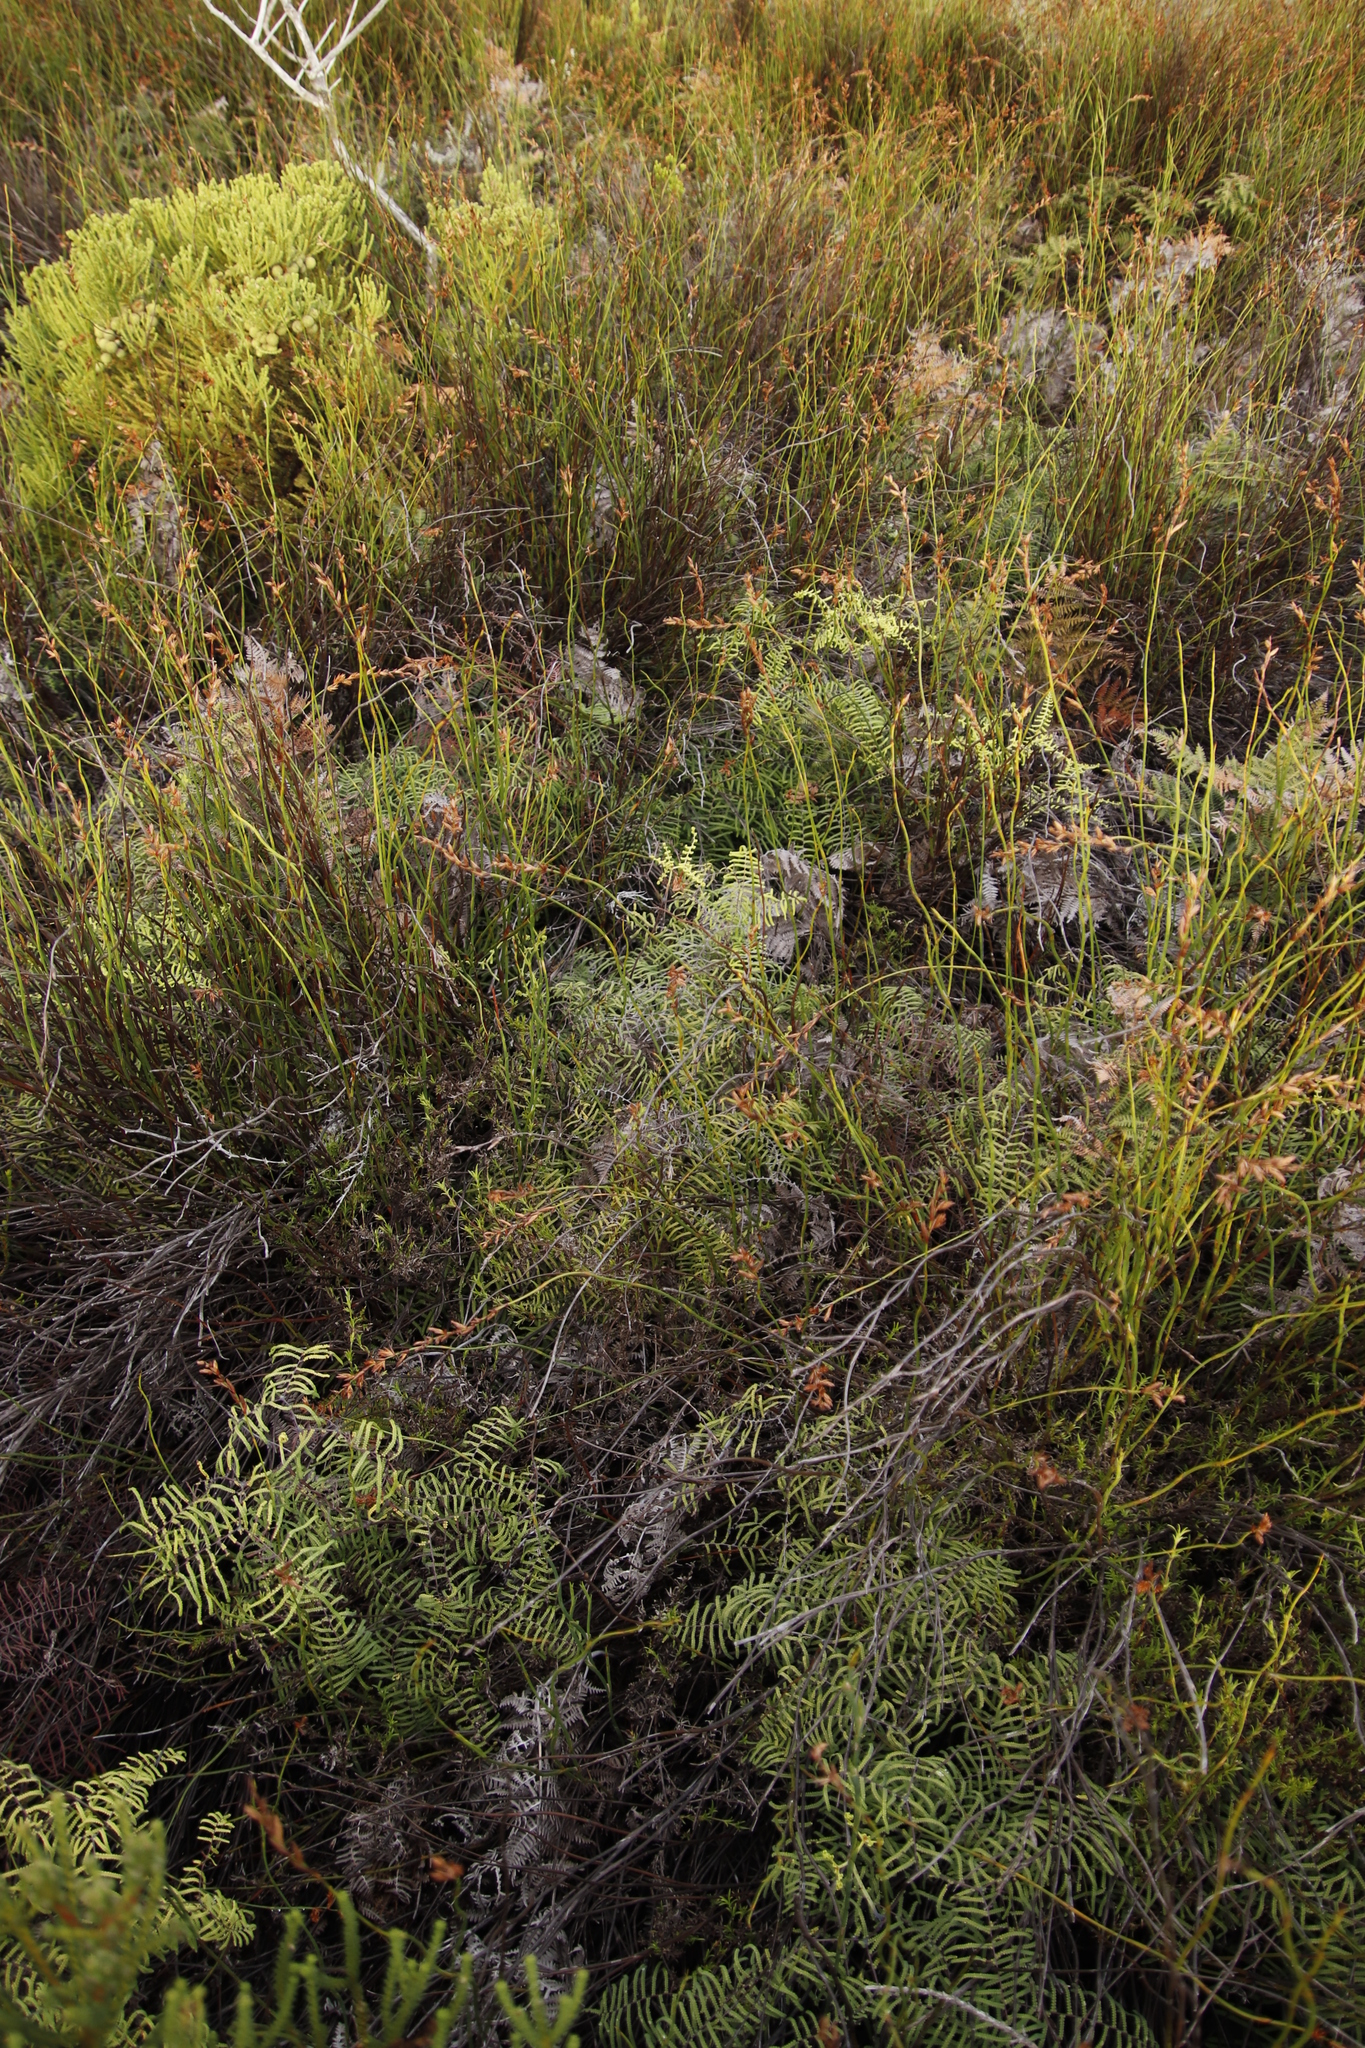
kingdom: Plantae
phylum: Tracheophyta
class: Polypodiopsida
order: Gleicheniales
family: Gleicheniaceae
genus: Gleichenia
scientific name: Gleichenia polypodioides
